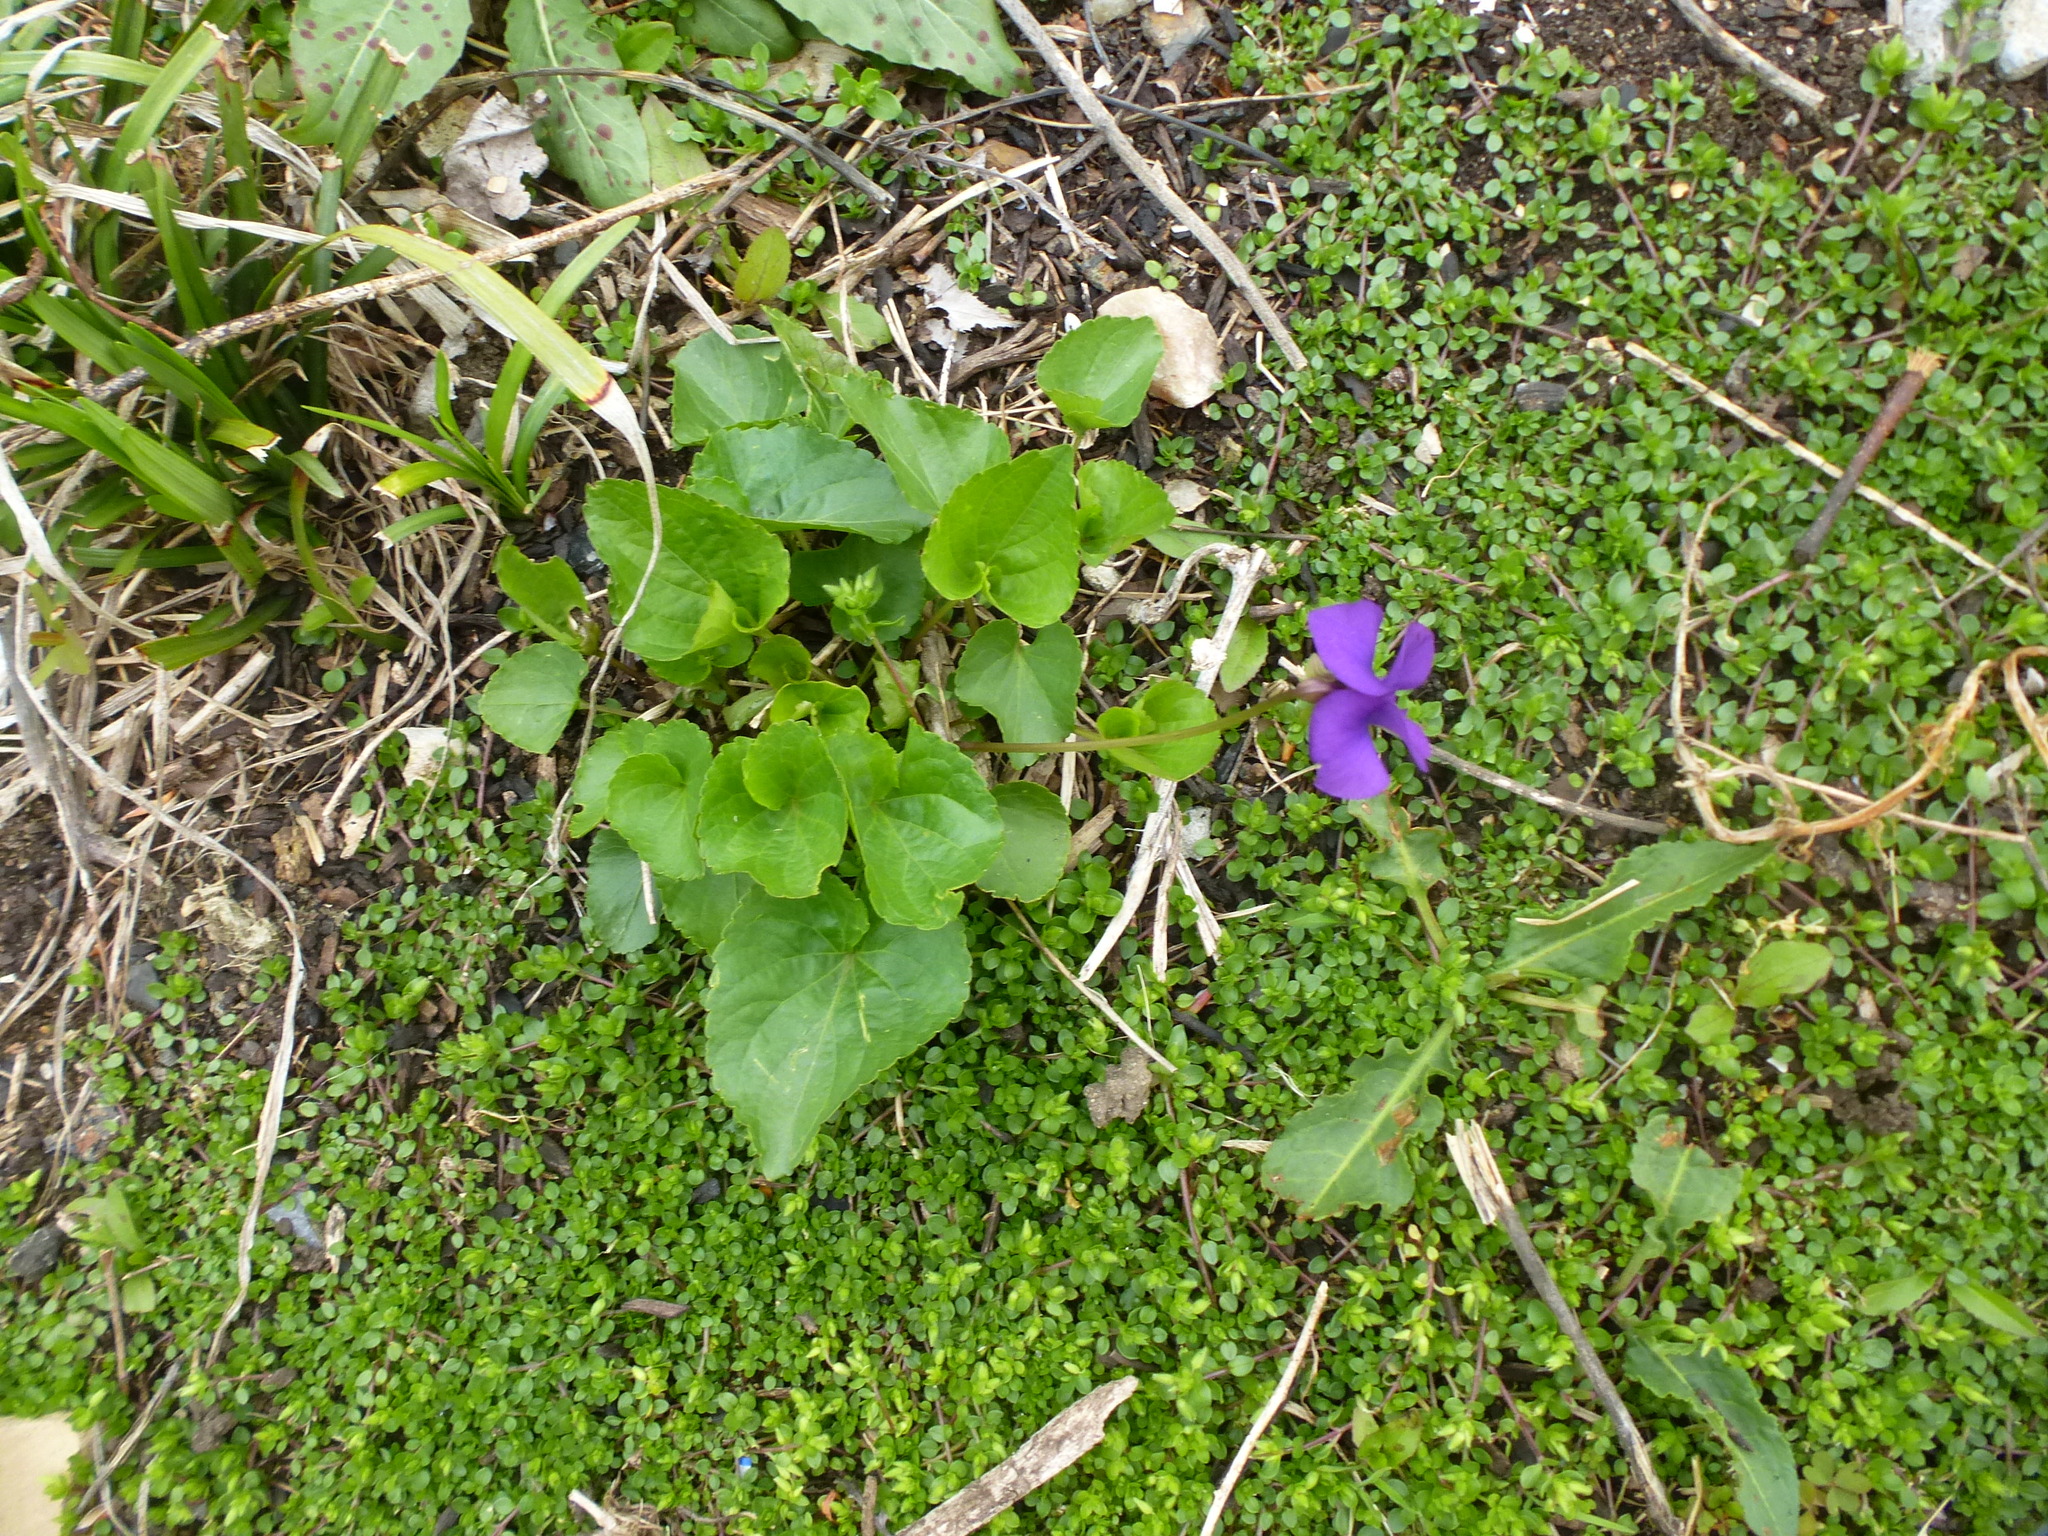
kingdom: Plantae
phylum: Tracheophyta
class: Magnoliopsida
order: Malpighiales
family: Violaceae
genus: Viola
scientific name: Viola sororia
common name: Dooryard violet
